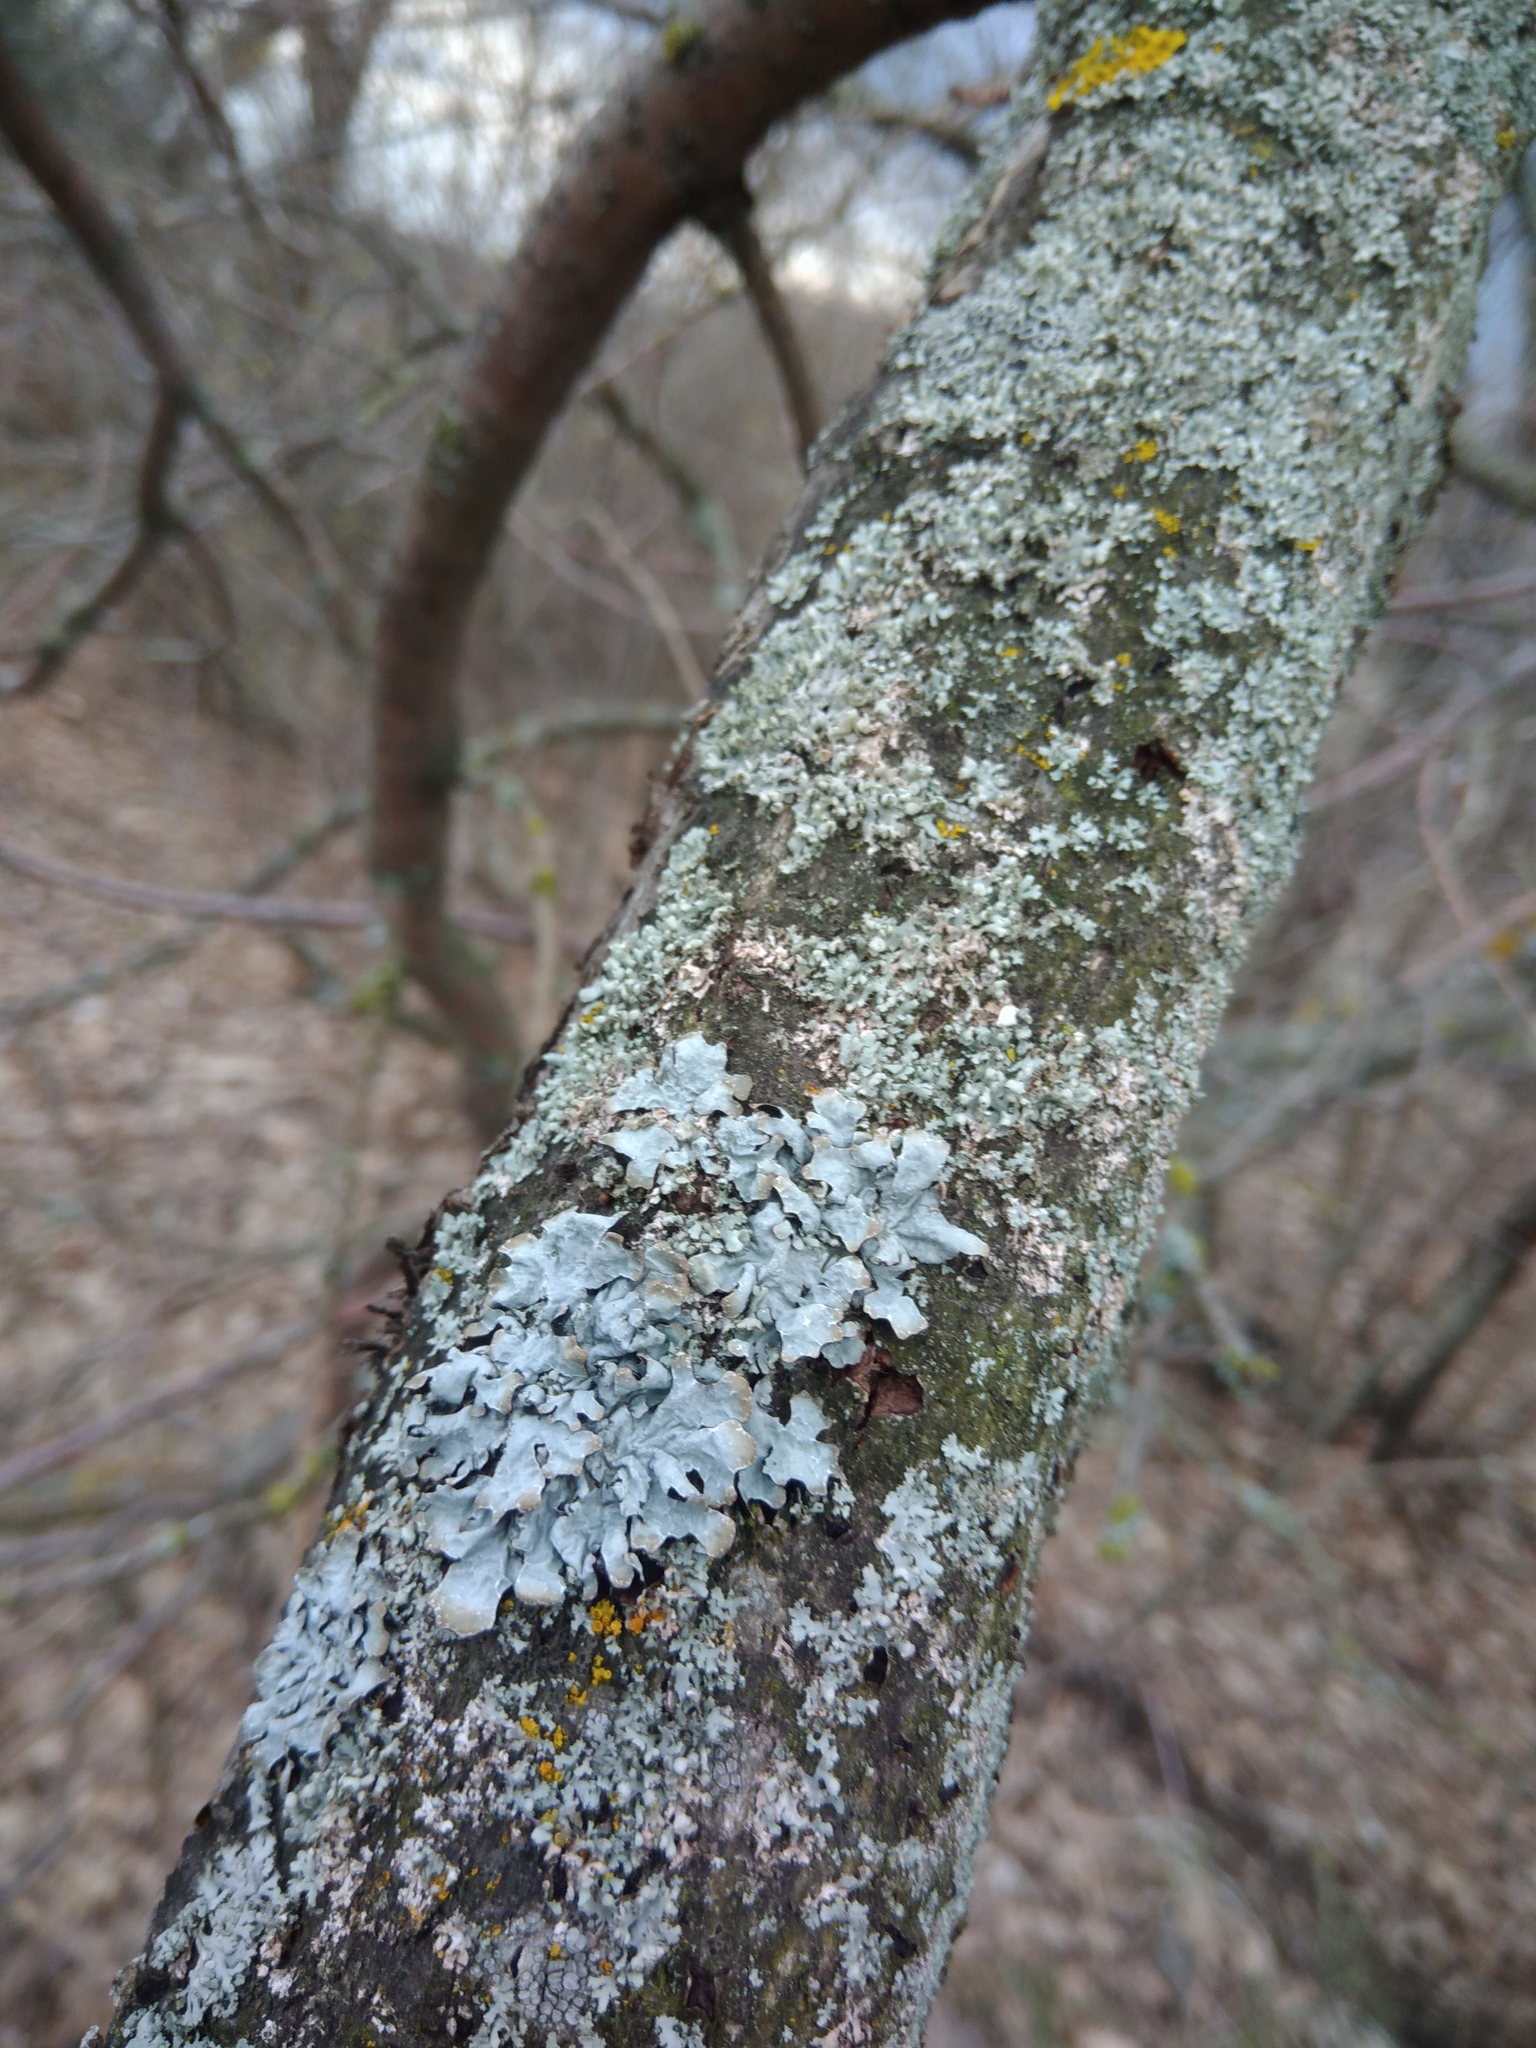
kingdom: Fungi
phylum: Ascomycota
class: Lecanoromycetes
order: Lecanorales
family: Parmeliaceae
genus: Parmelia
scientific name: Parmelia sulcata
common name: Netted shield lichen
